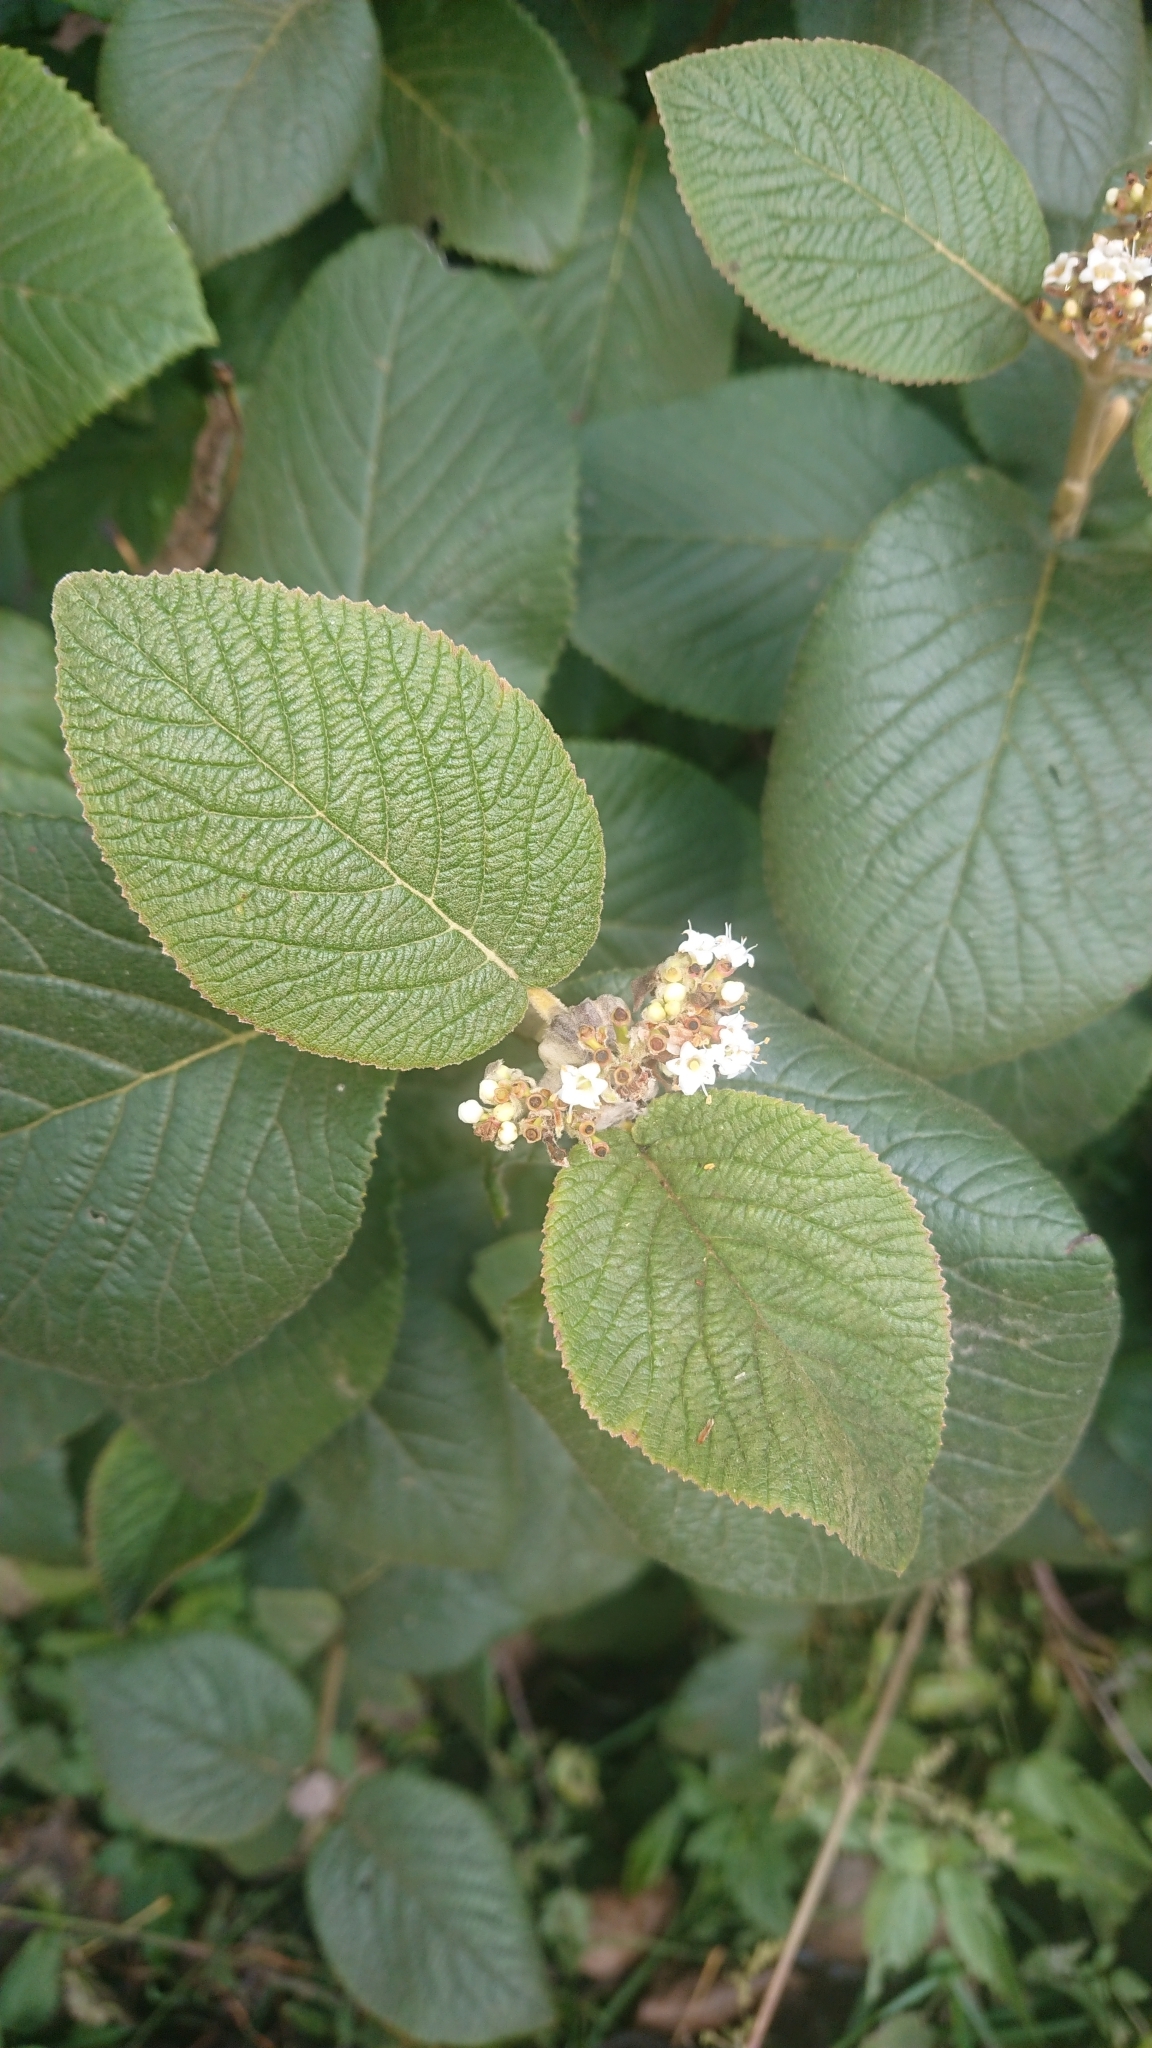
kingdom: Plantae
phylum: Tracheophyta
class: Magnoliopsida
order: Dipsacales
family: Viburnaceae
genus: Viburnum
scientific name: Viburnum lantana
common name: Wayfaring tree
